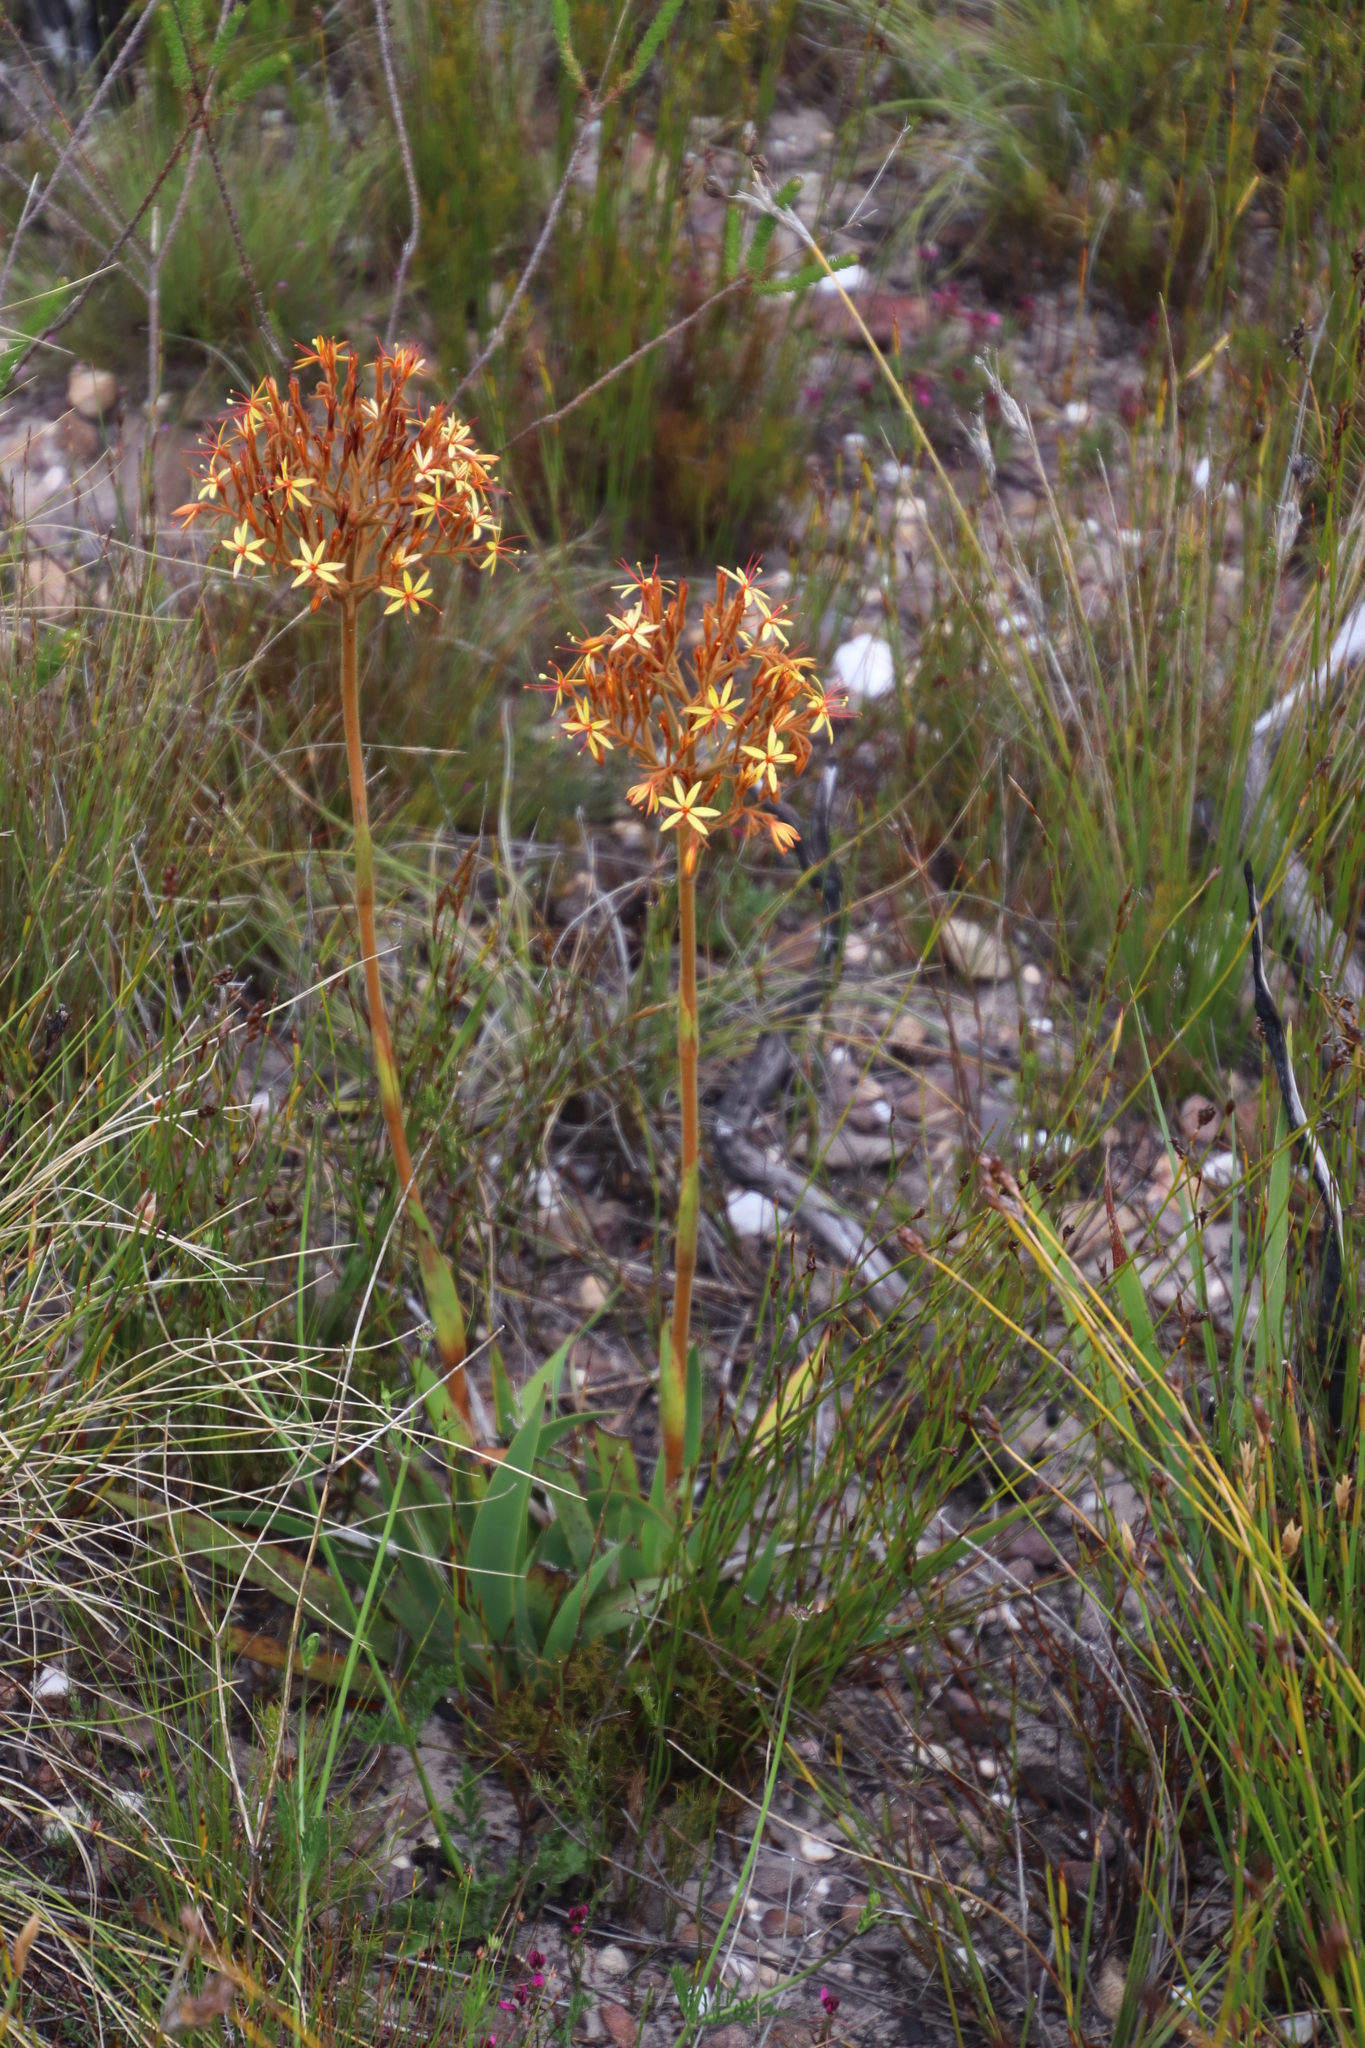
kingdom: Plantae
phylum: Tracheophyta
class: Liliopsida
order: Commelinales
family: Haemodoraceae
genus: Dilatris
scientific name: Dilatris viscosa
